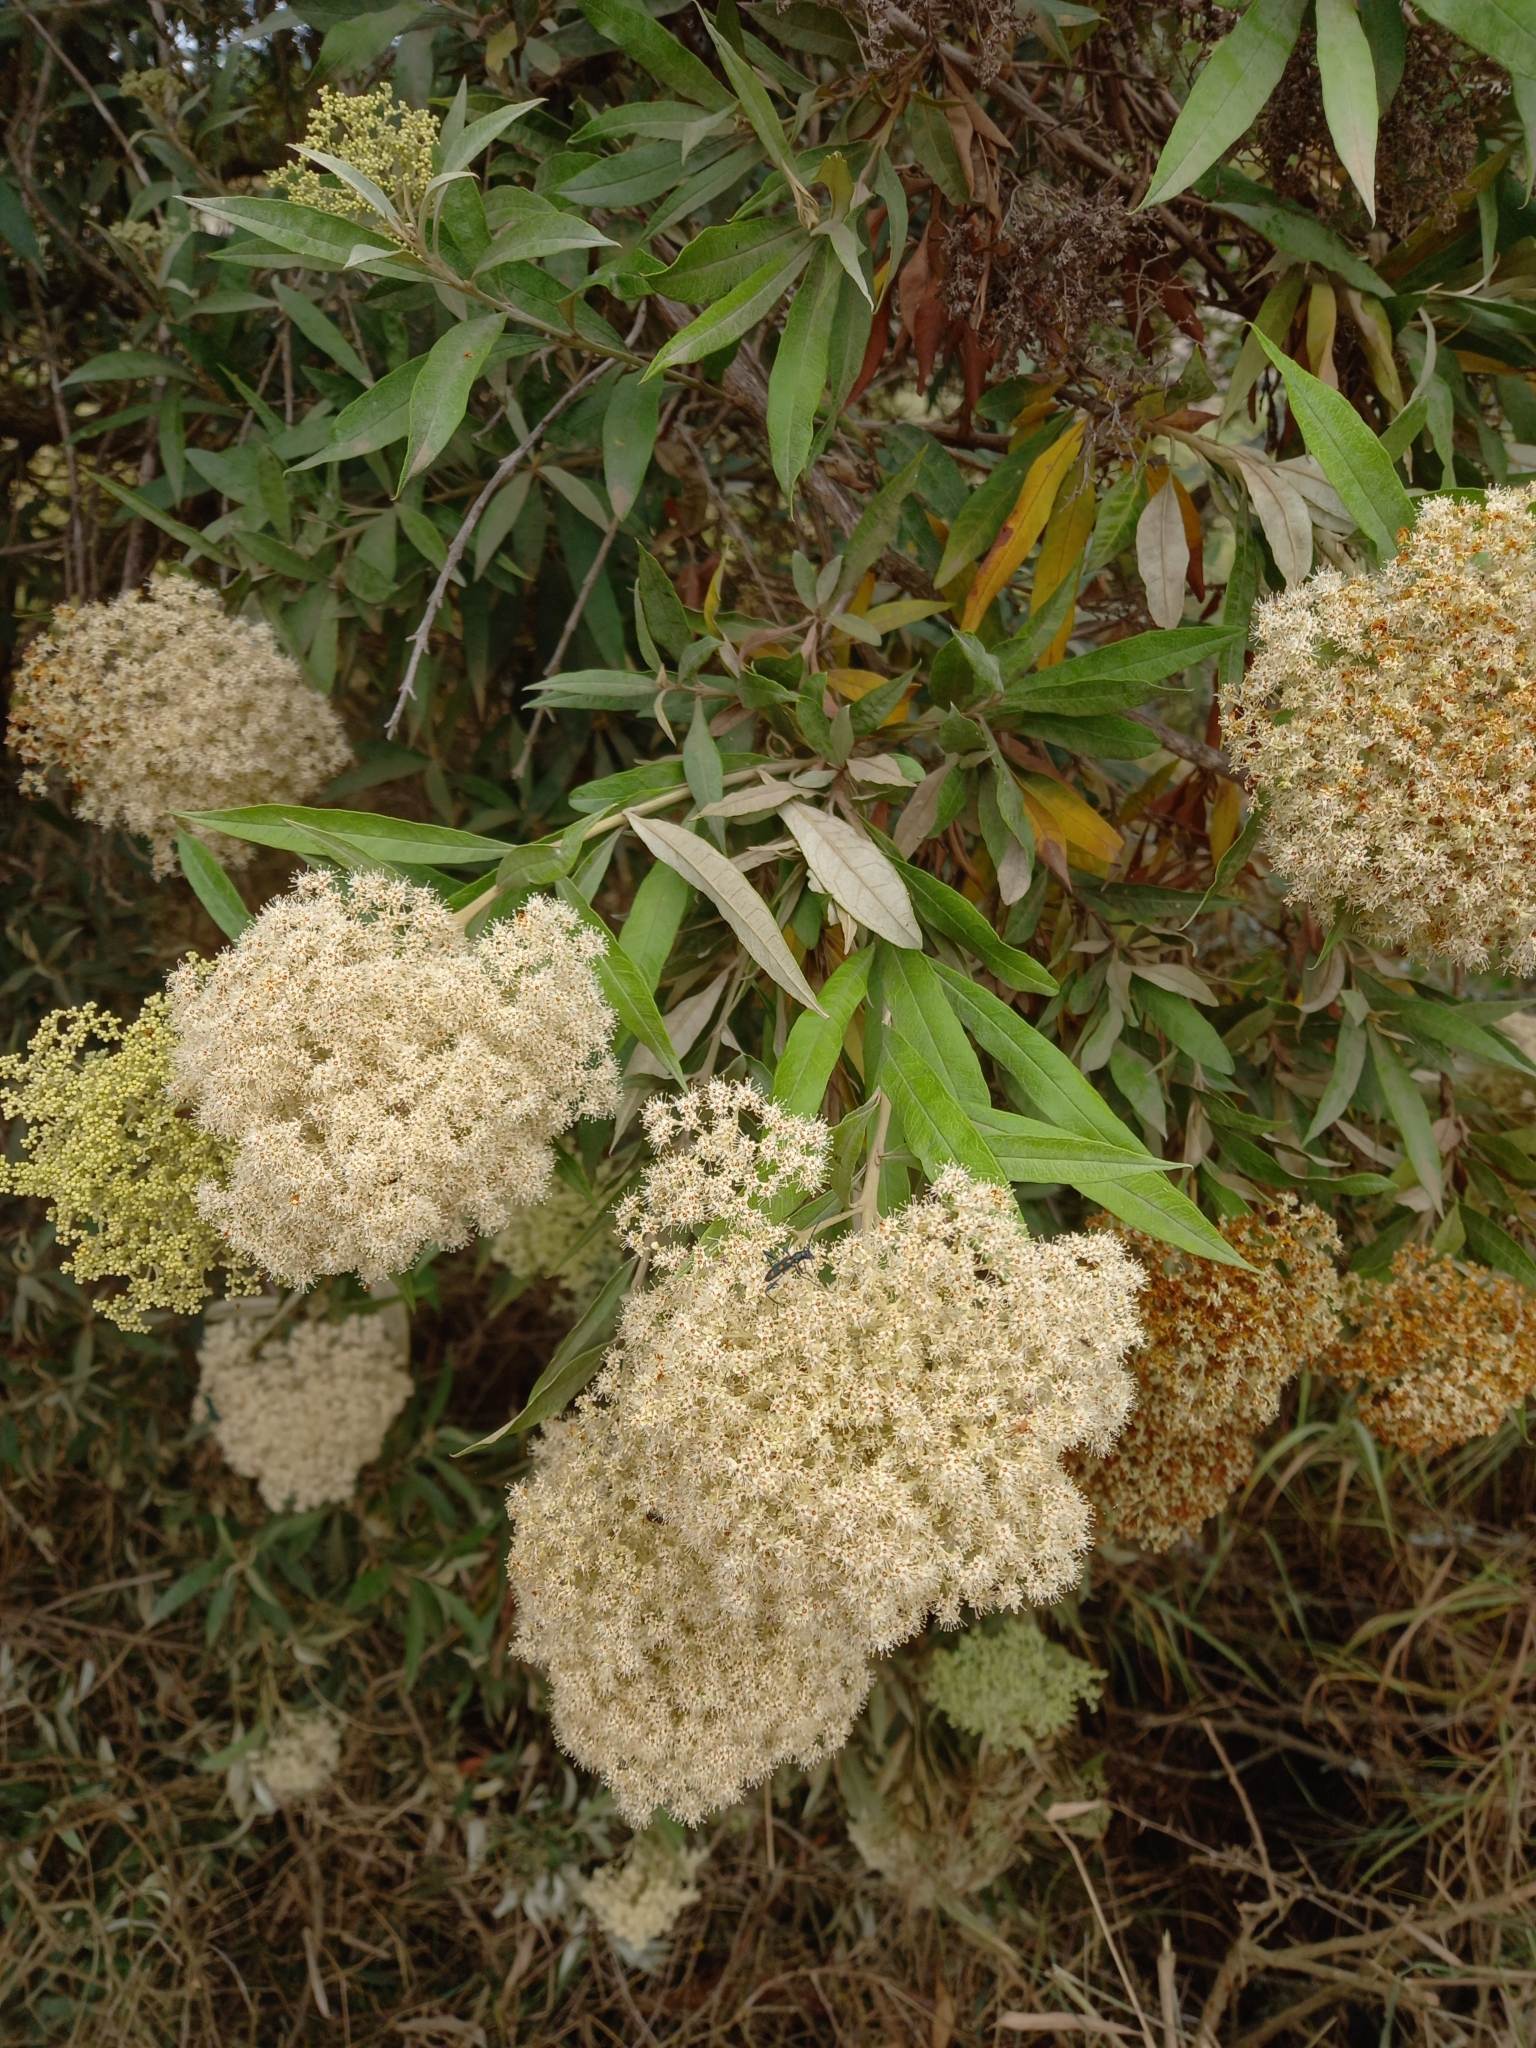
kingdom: Plantae
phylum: Tracheophyta
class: Magnoliopsida
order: Lamiales
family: Scrophulariaceae
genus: Buddleja
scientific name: Buddleja saligna
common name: False olive
